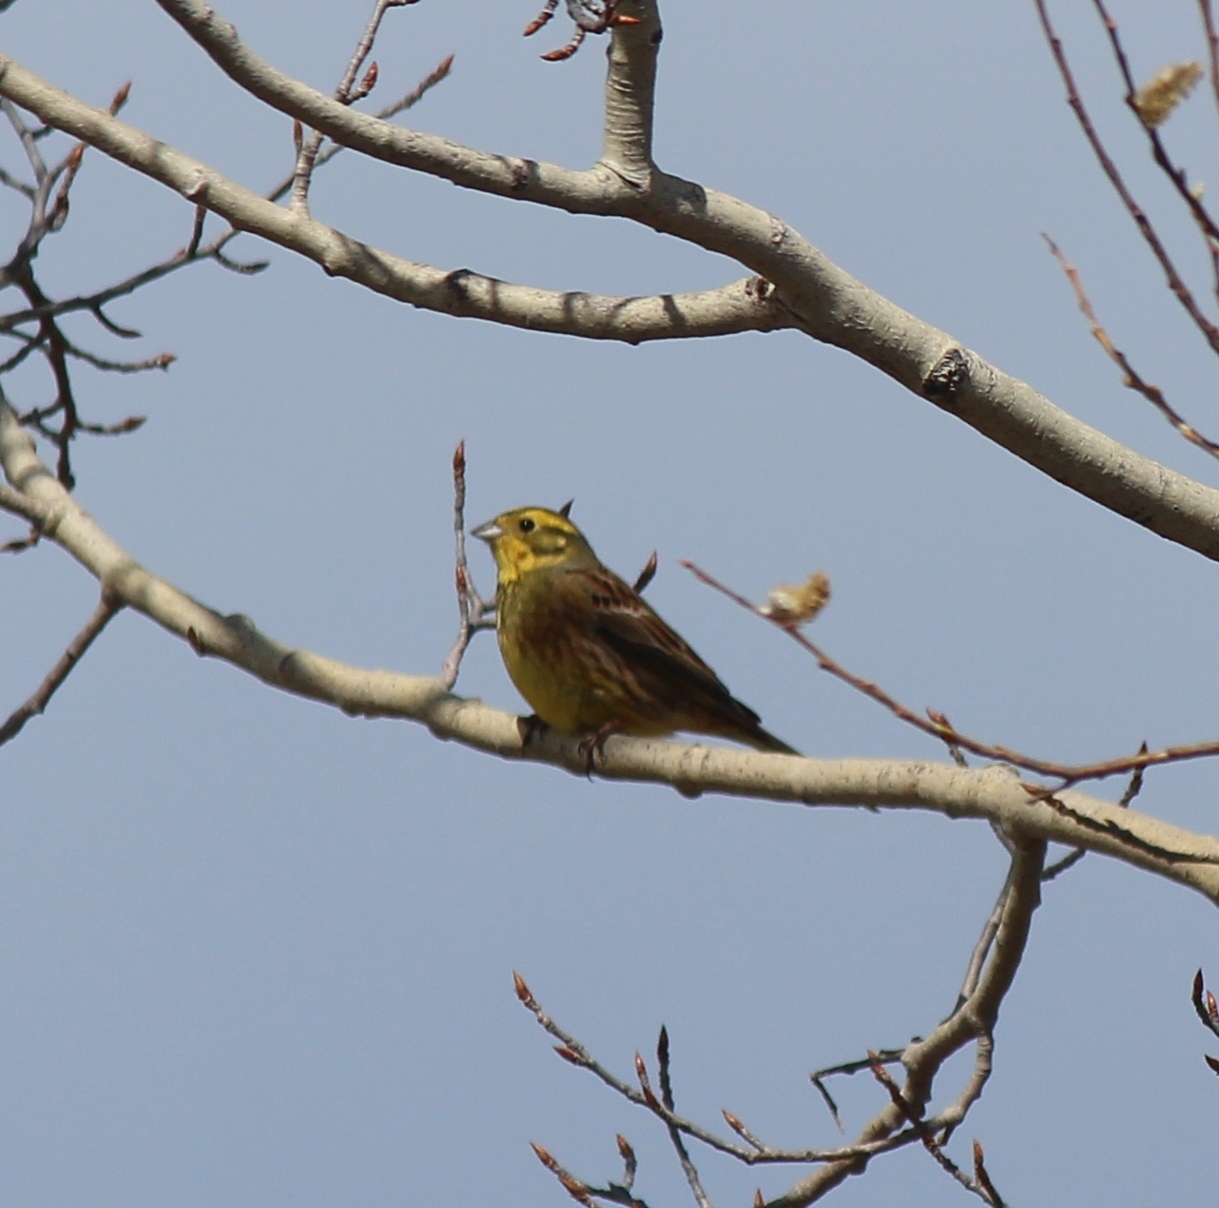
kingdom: Animalia
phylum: Chordata
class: Aves
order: Passeriformes
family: Emberizidae
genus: Emberiza
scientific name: Emberiza citrinella
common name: Yellowhammer
